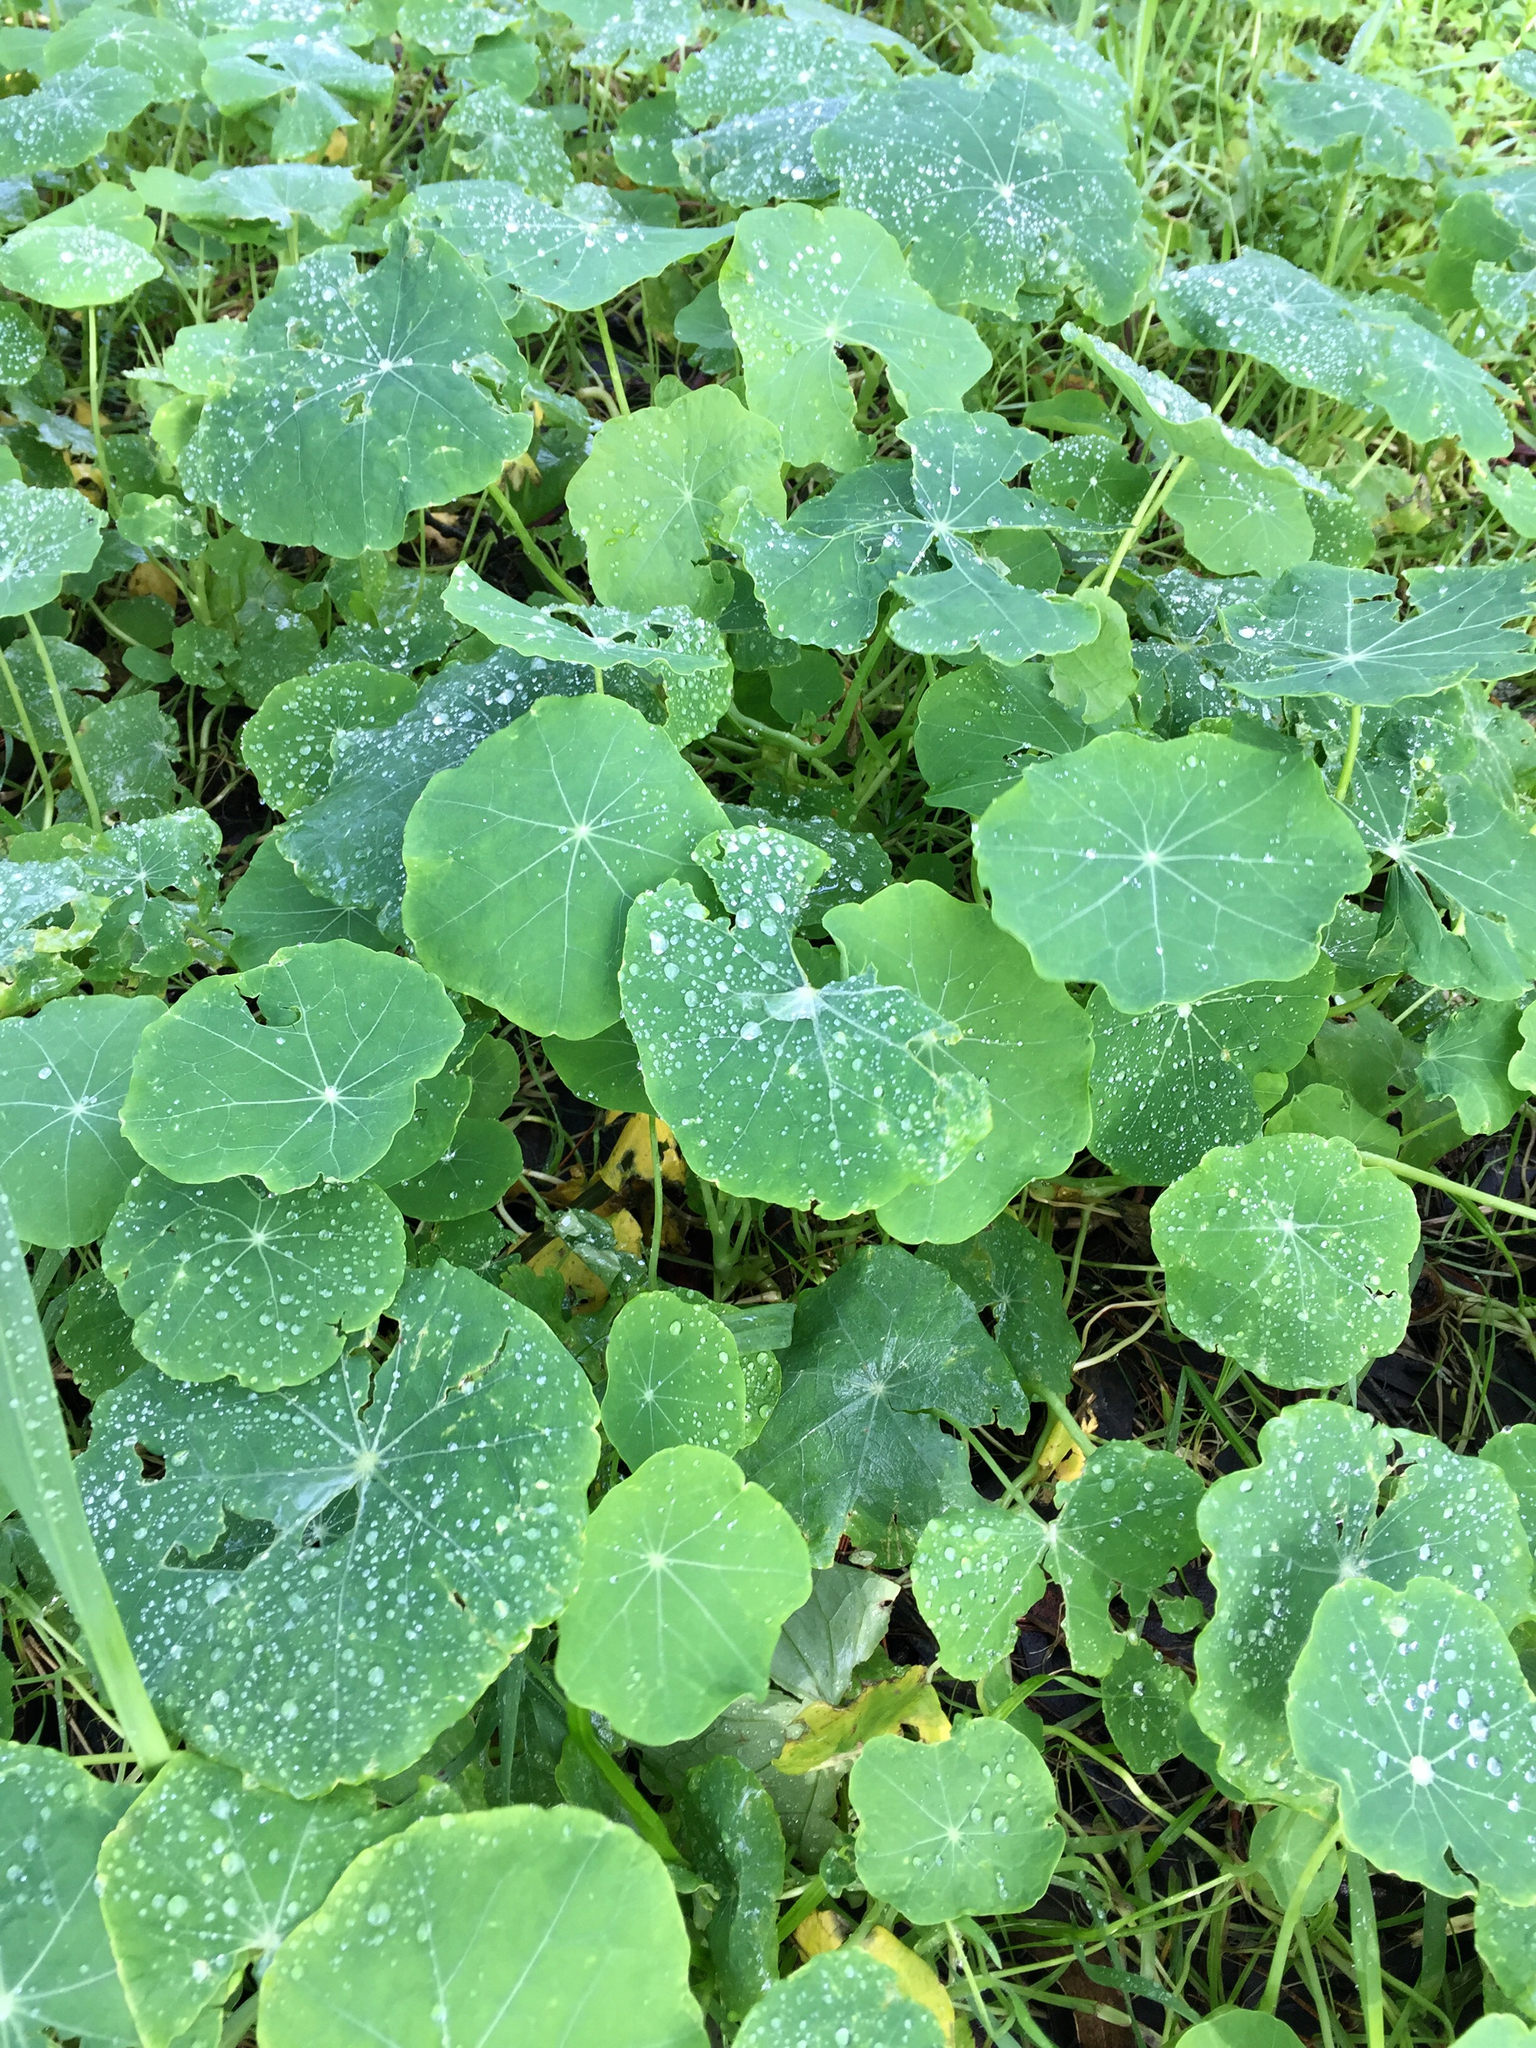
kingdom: Plantae
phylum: Tracheophyta
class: Magnoliopsida
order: Brassicales
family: Tropaeolaceae
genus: Tropaeolum
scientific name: Tropaeolum majus
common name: Nasturtium
